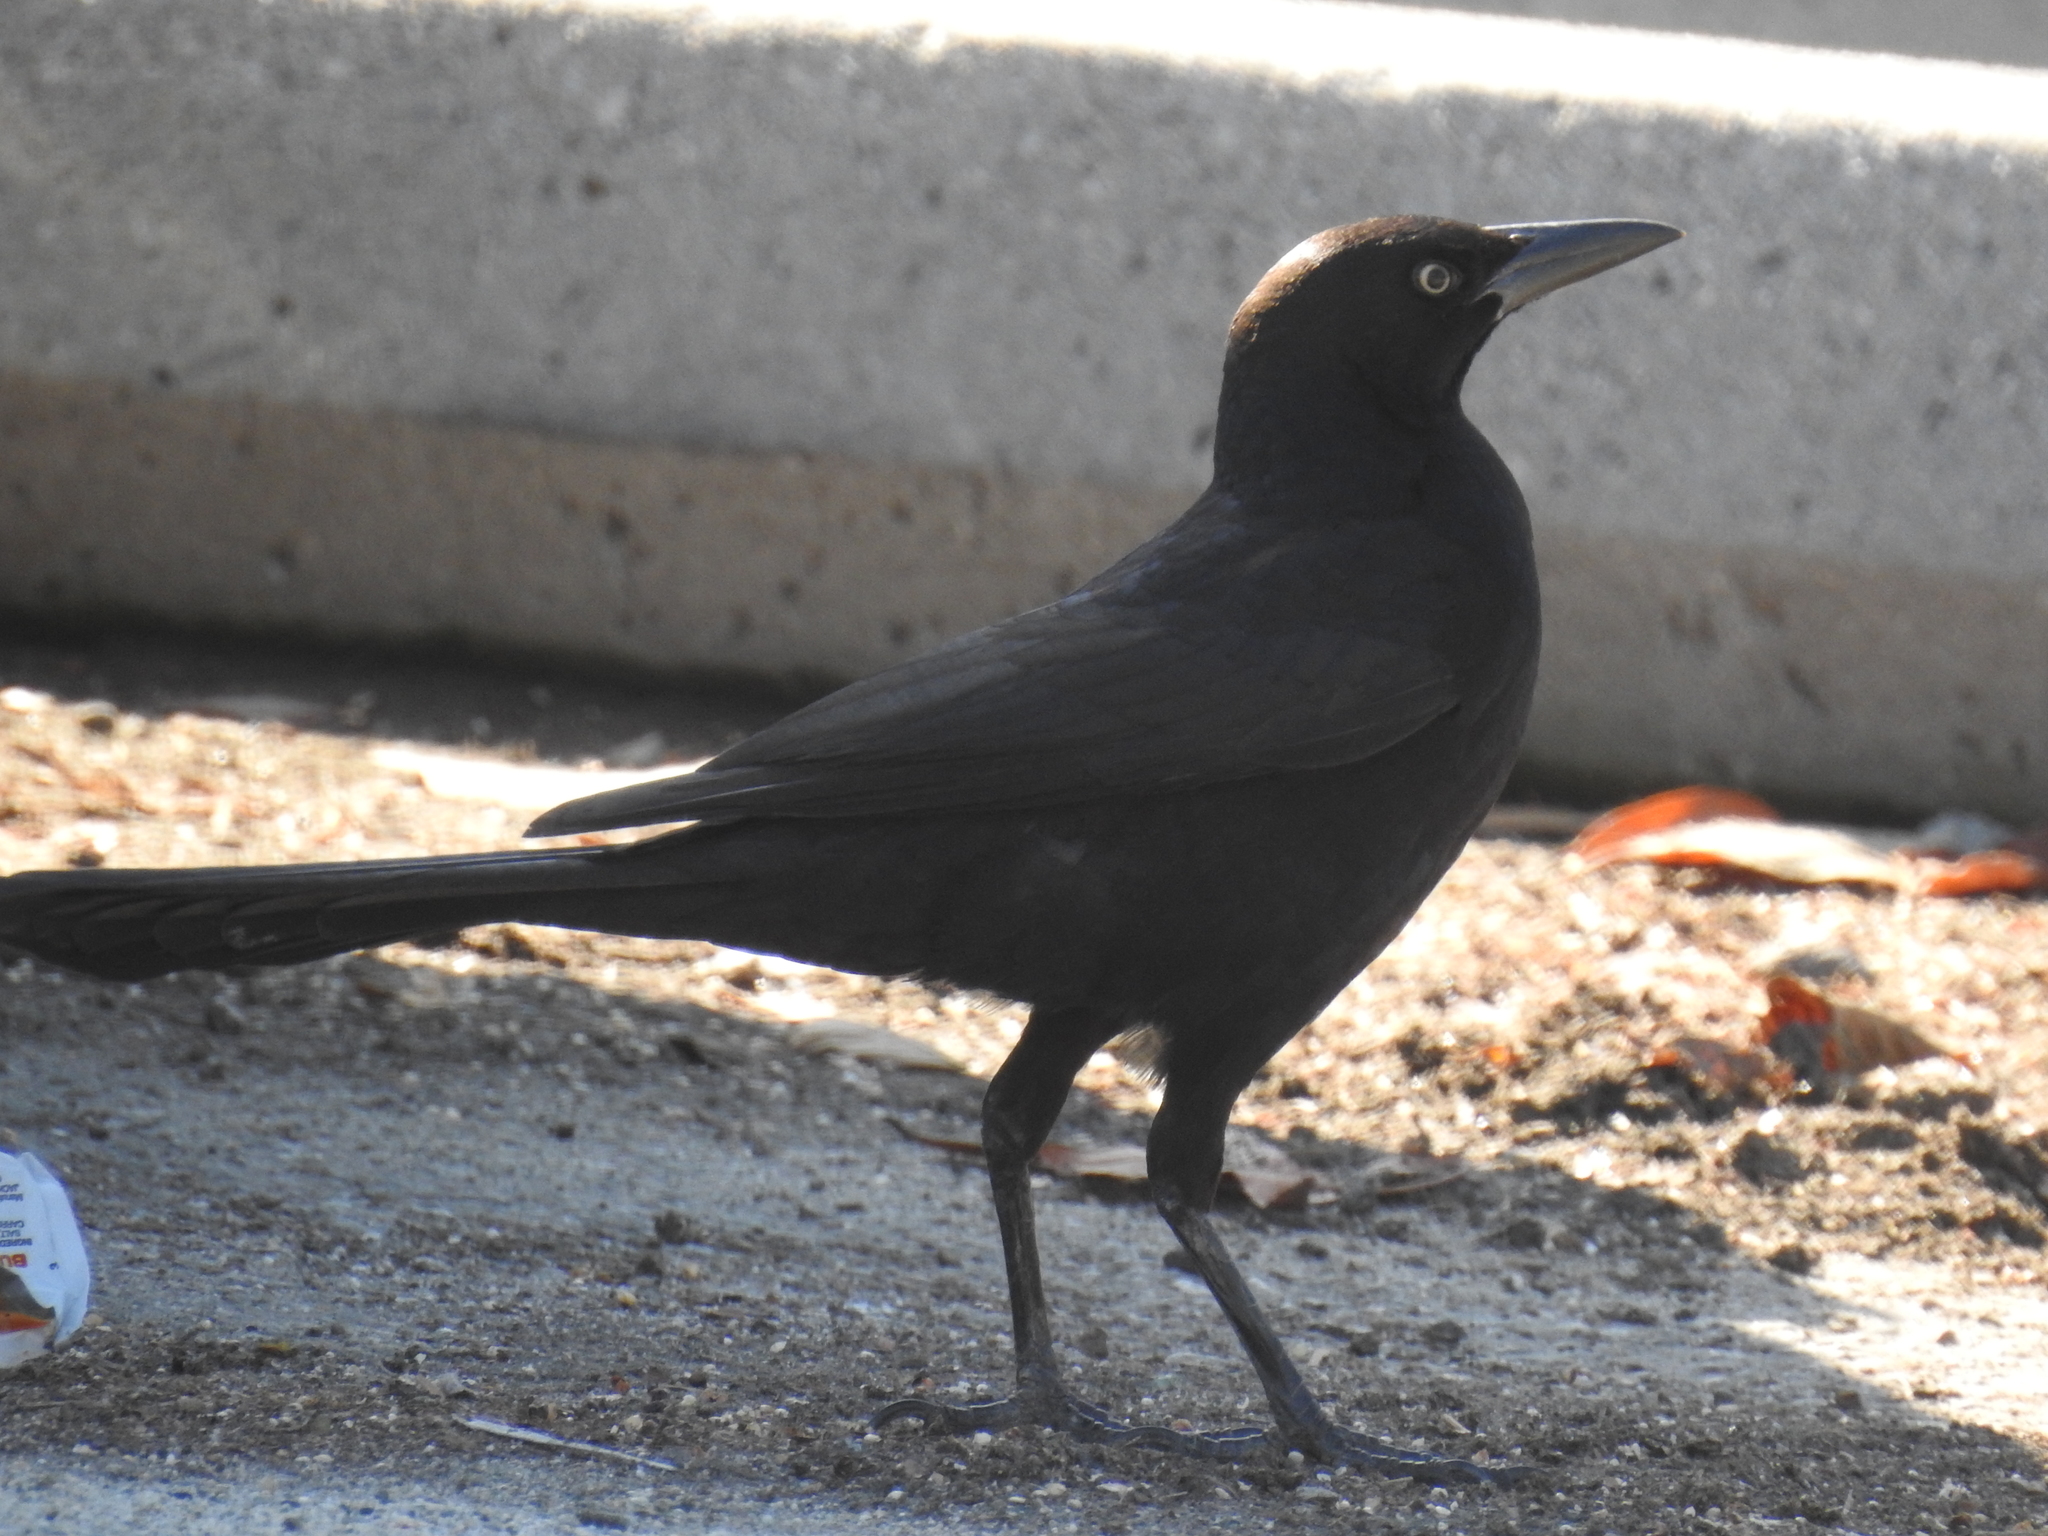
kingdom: Animalia
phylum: Chordata
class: Aves
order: Passeriformes
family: Icteridae
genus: Quiscalus
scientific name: Quiscalus mexicanus
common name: Great-tailed grackle
